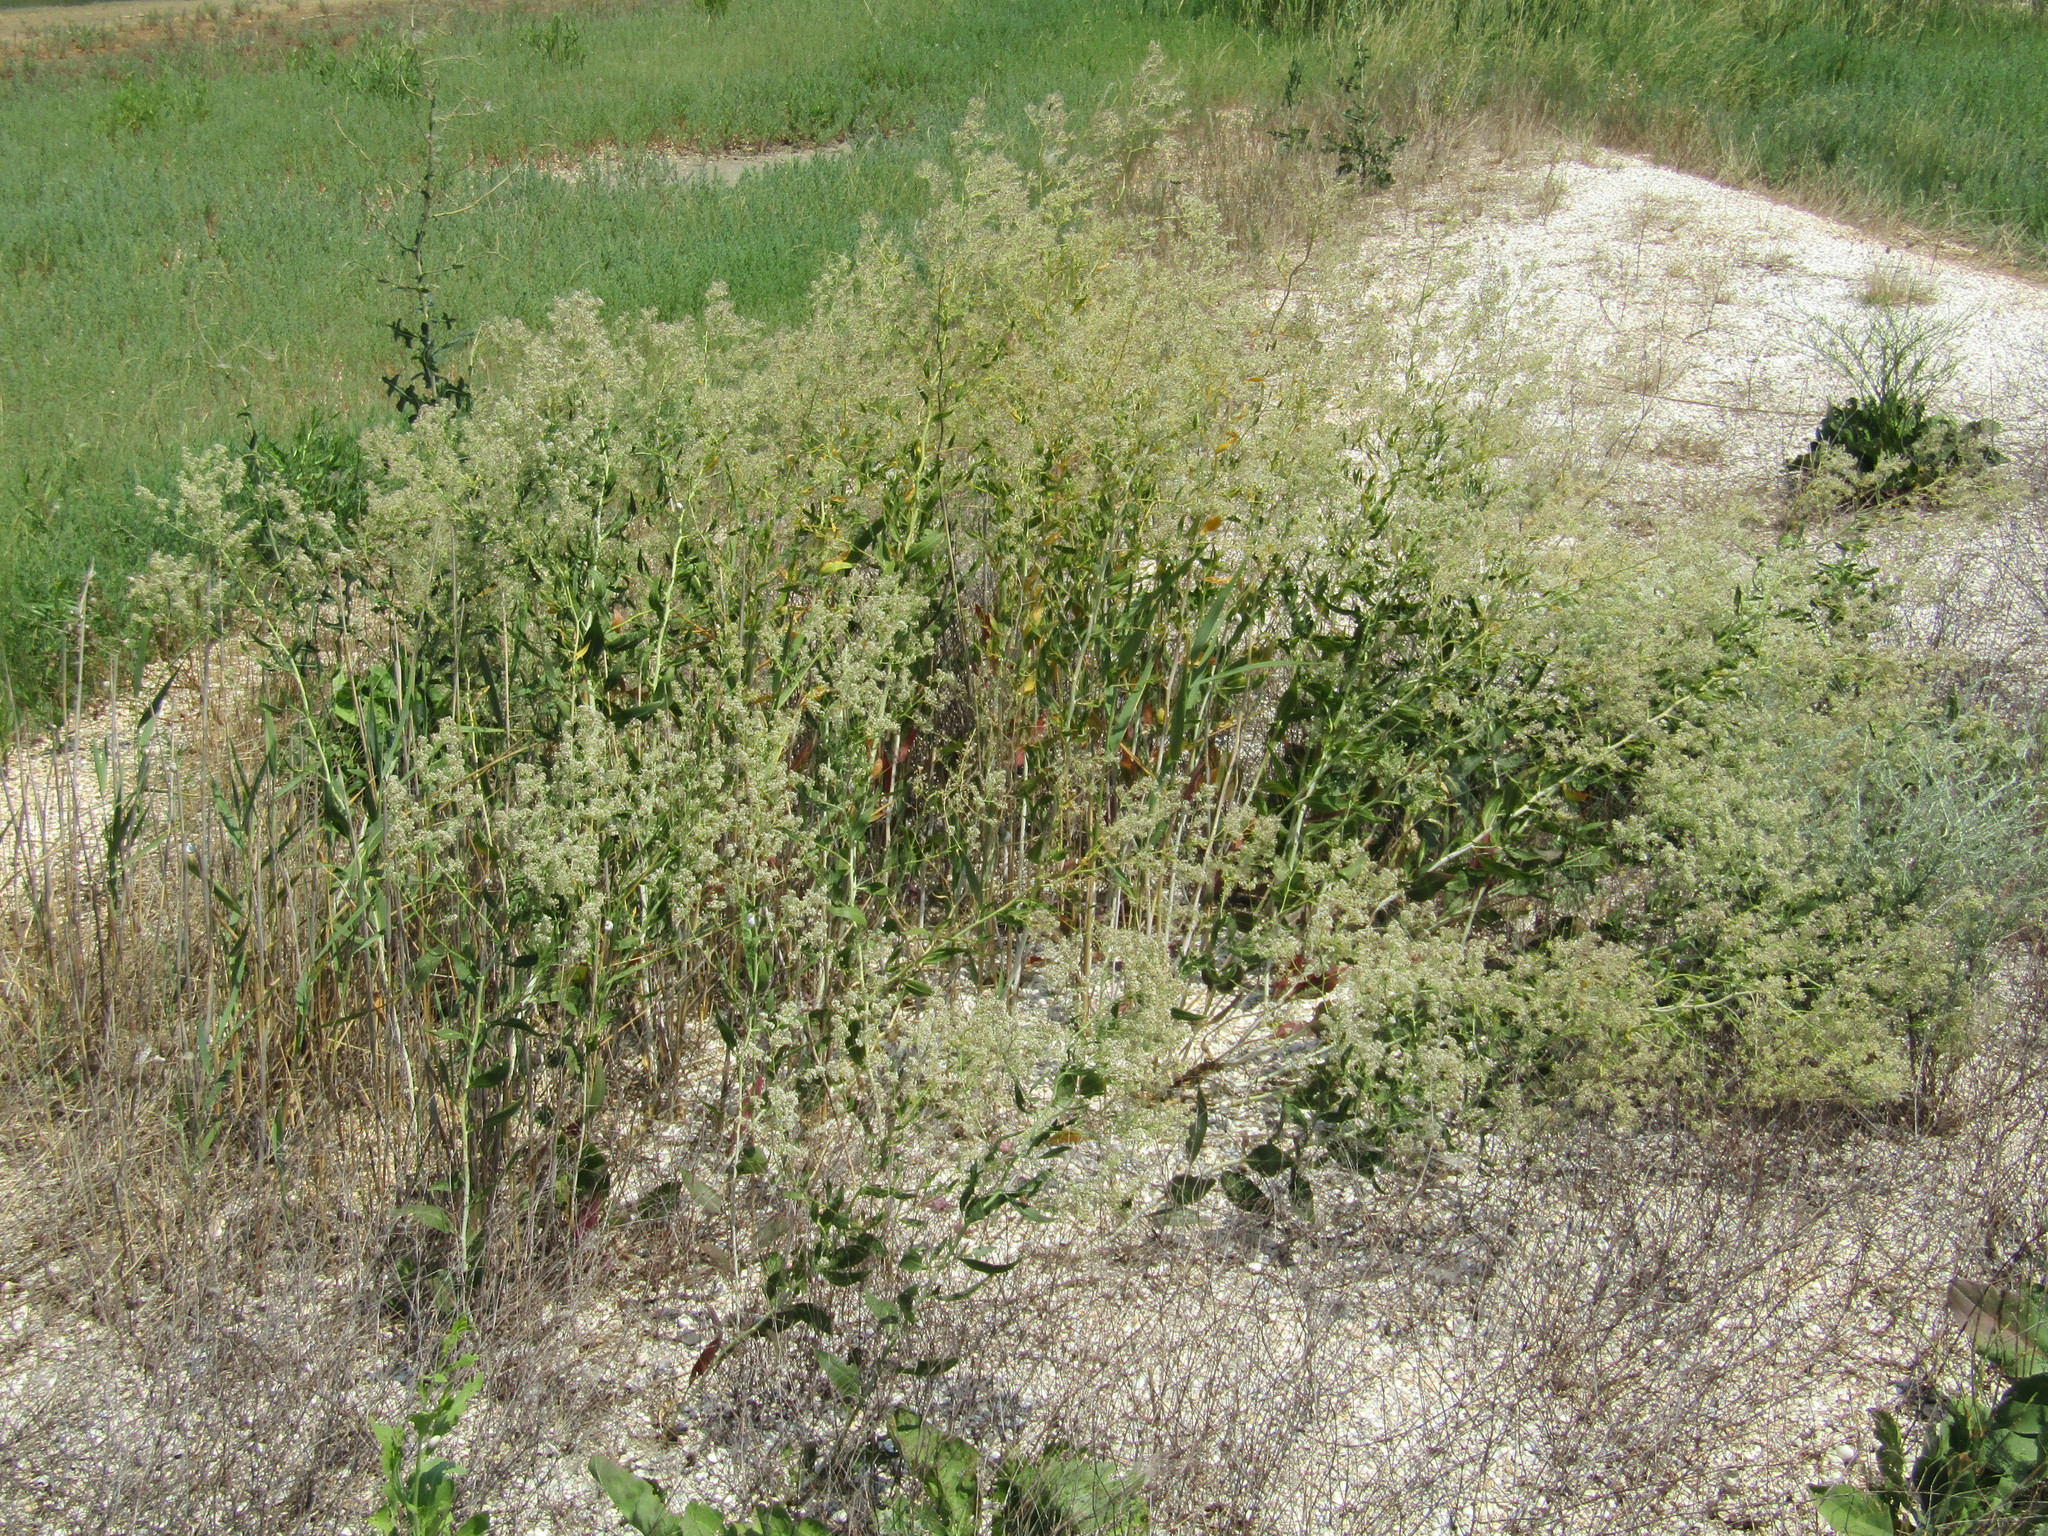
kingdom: Plantae
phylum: Tracheophyta
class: Magnoliopsida
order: Brassicales
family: Brassicaceae
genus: Lepidium
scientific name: Lepidium latifolium
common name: Dittander
